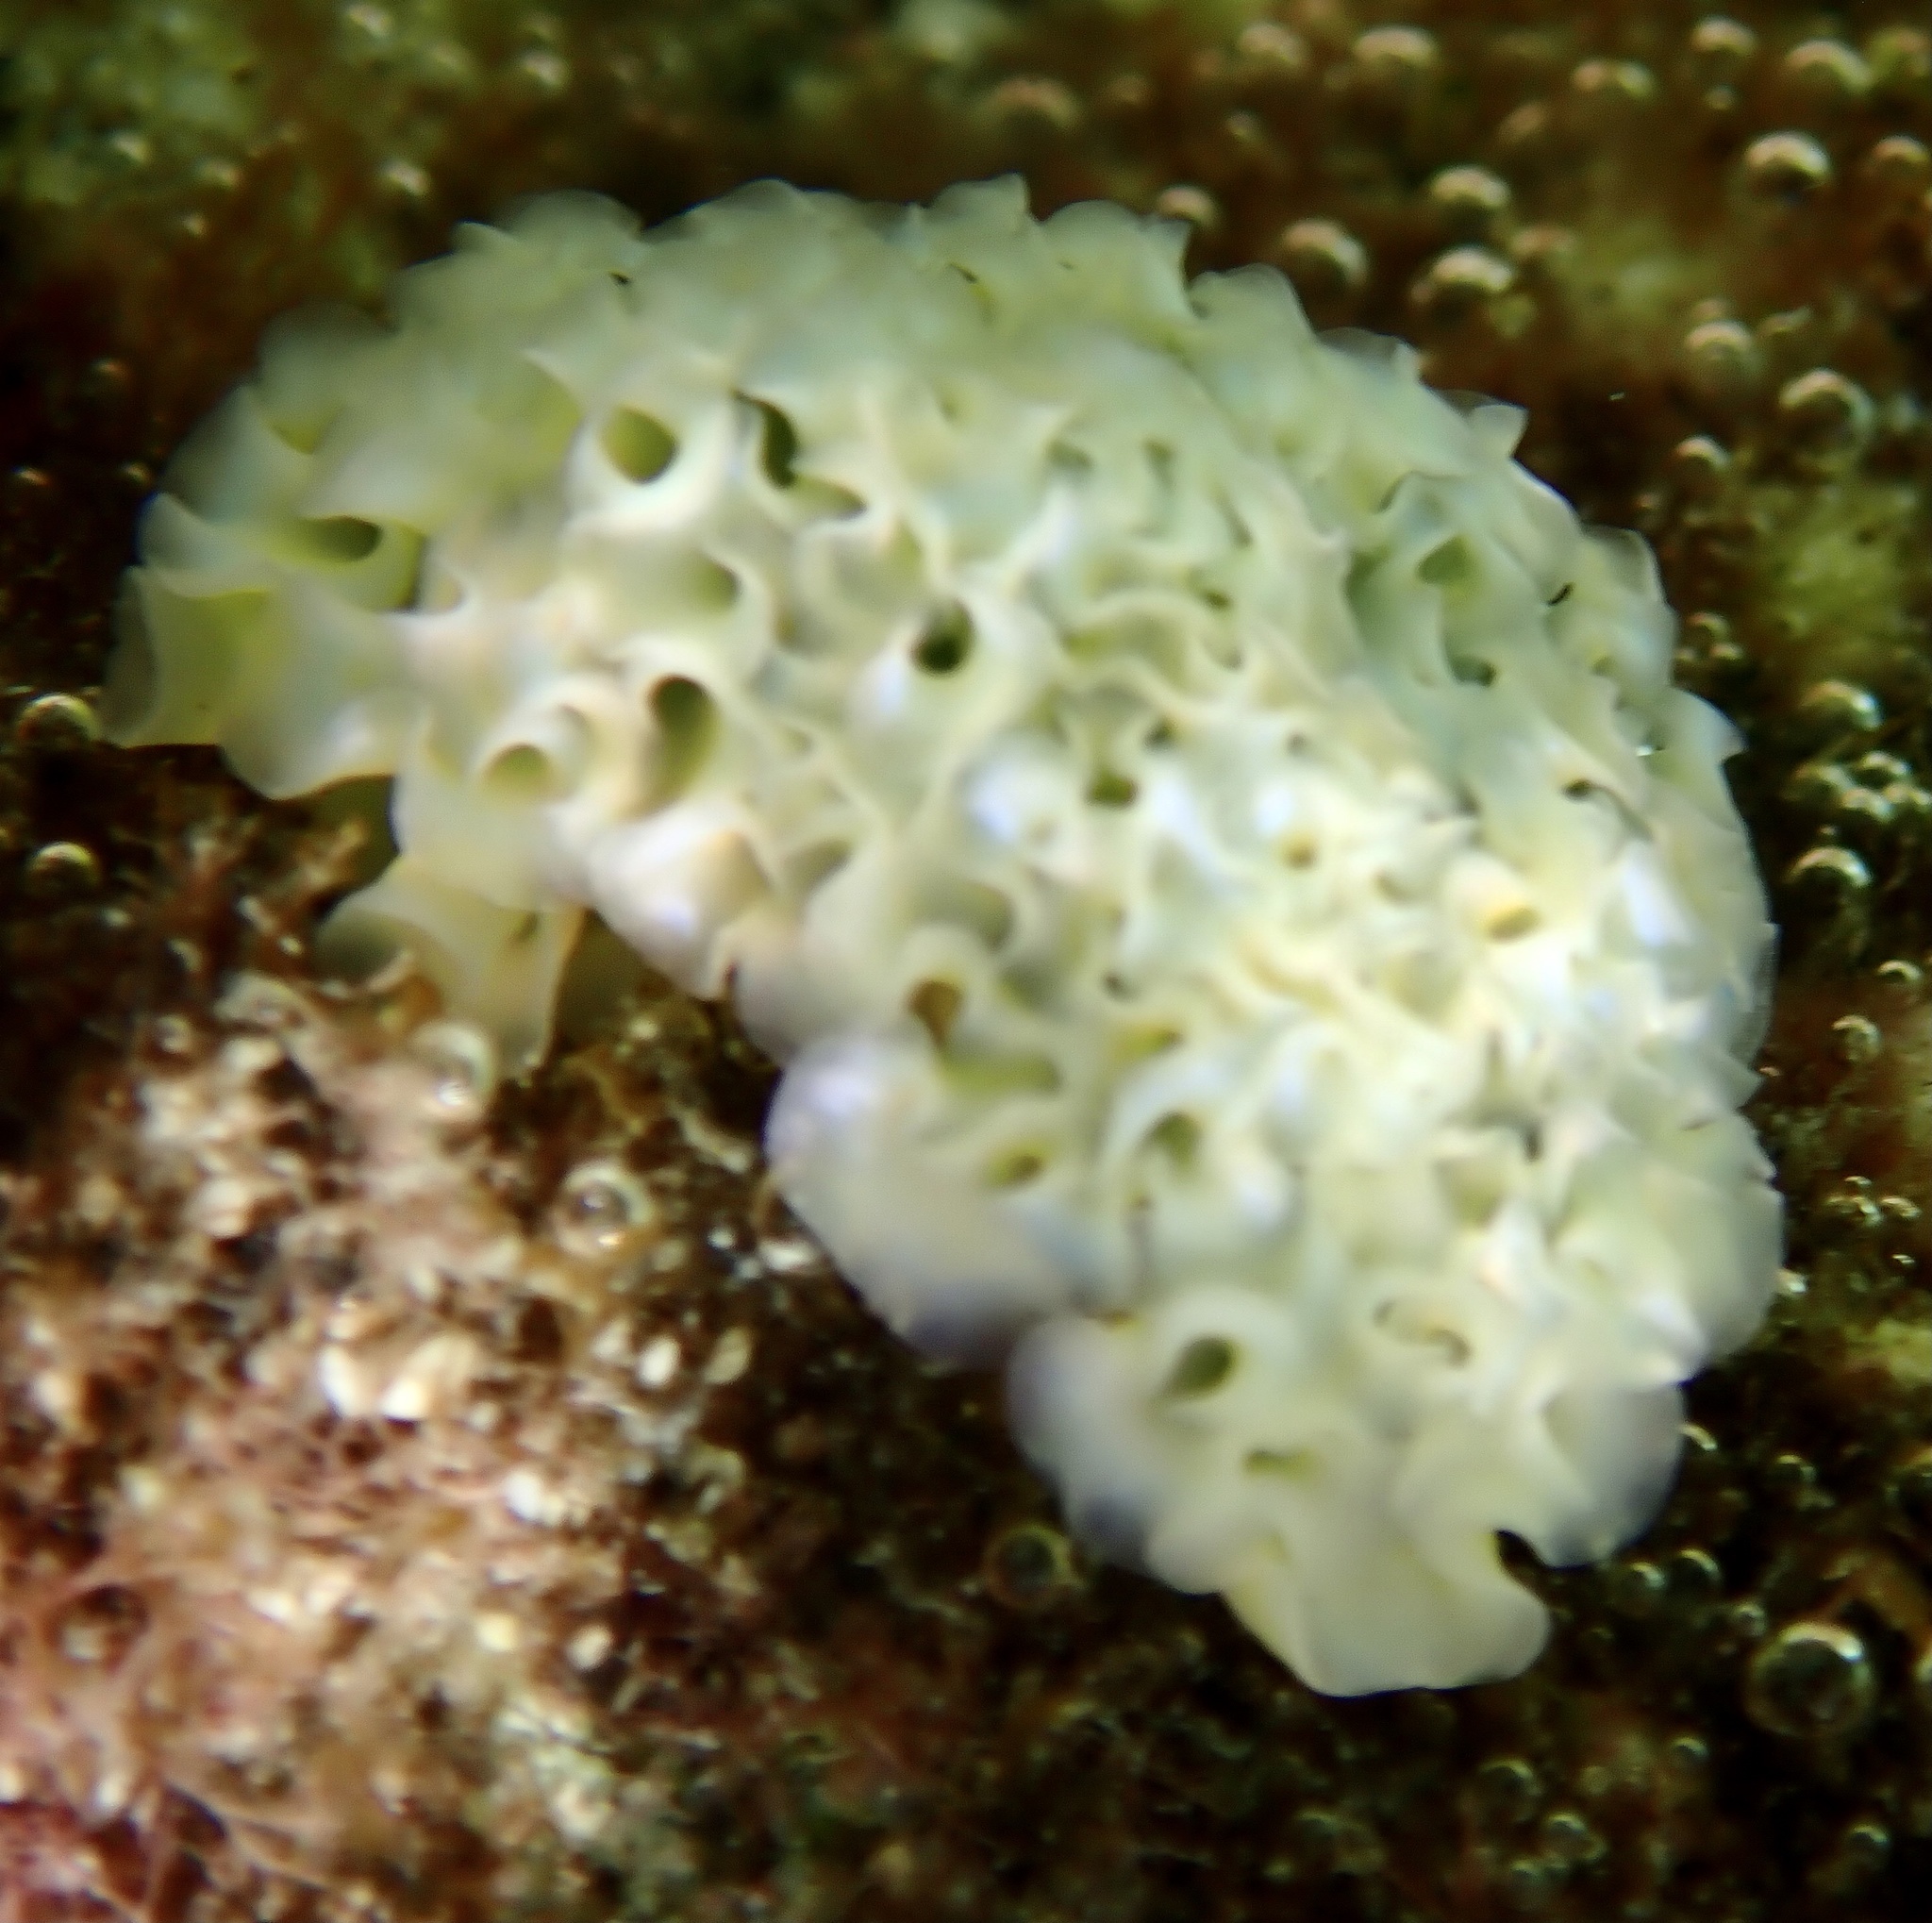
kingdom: Animalia
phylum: Mollusca
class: Gastropoda
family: Plakobranchidae
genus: Elysia
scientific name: Elysia crispata
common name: Lettuce slug
